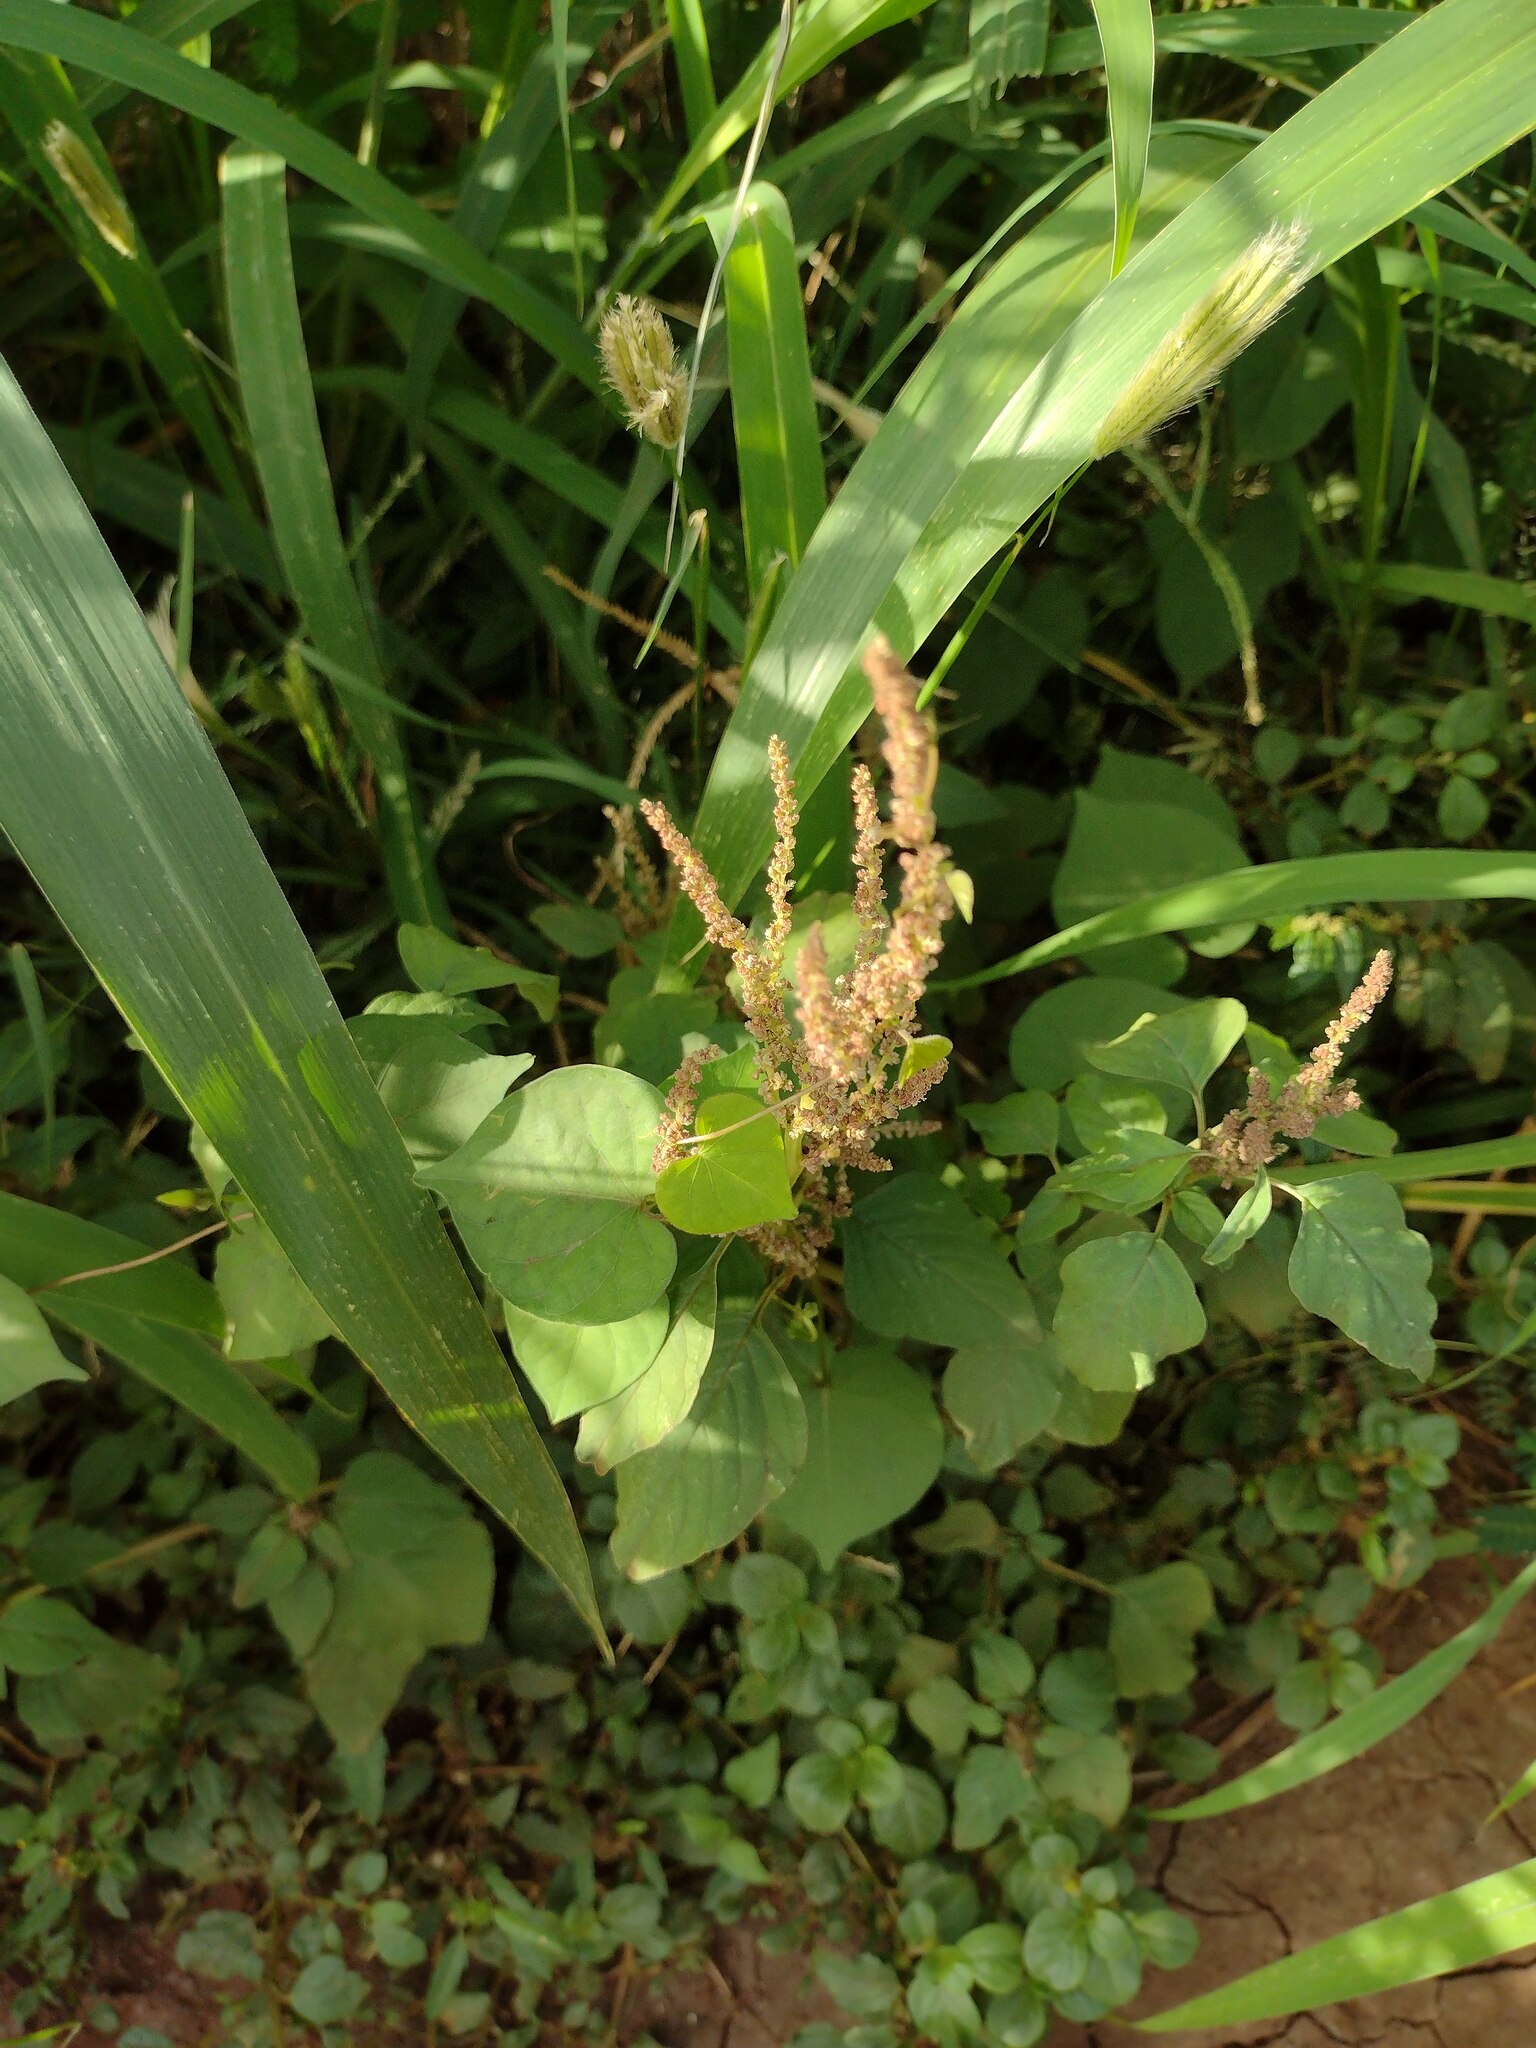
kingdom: Plantae
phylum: Tracheophyta
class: Magnoliopsida
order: Caryophyllales
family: Amaranthaceae
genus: Amaranthus
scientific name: Amaranthus viridis
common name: Slender amaranth
